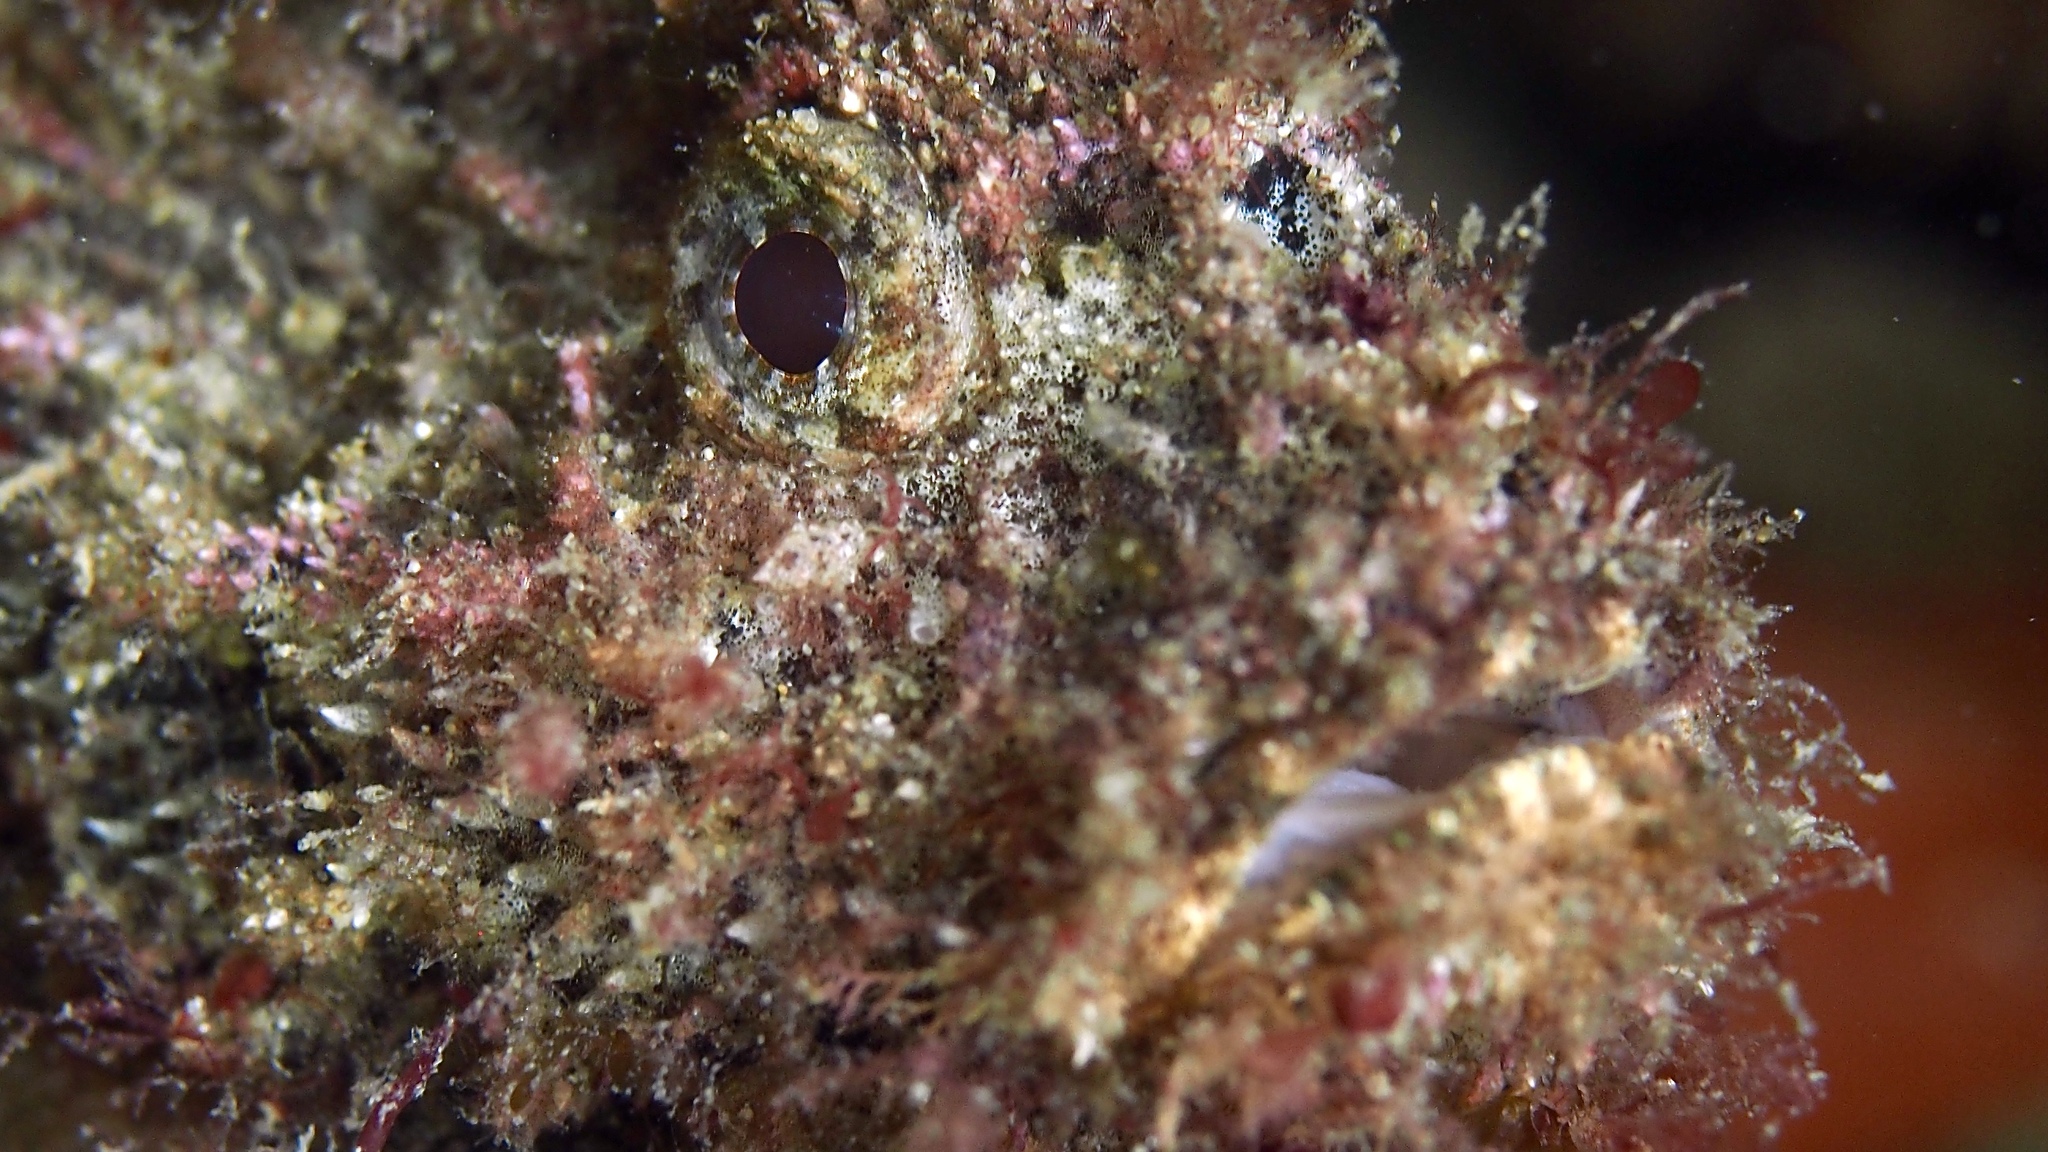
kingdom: Animalia
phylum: Chordata
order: Scorpaeniformes
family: Aploactinidae
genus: Aploactisoma
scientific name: Aploactisoma milesii
